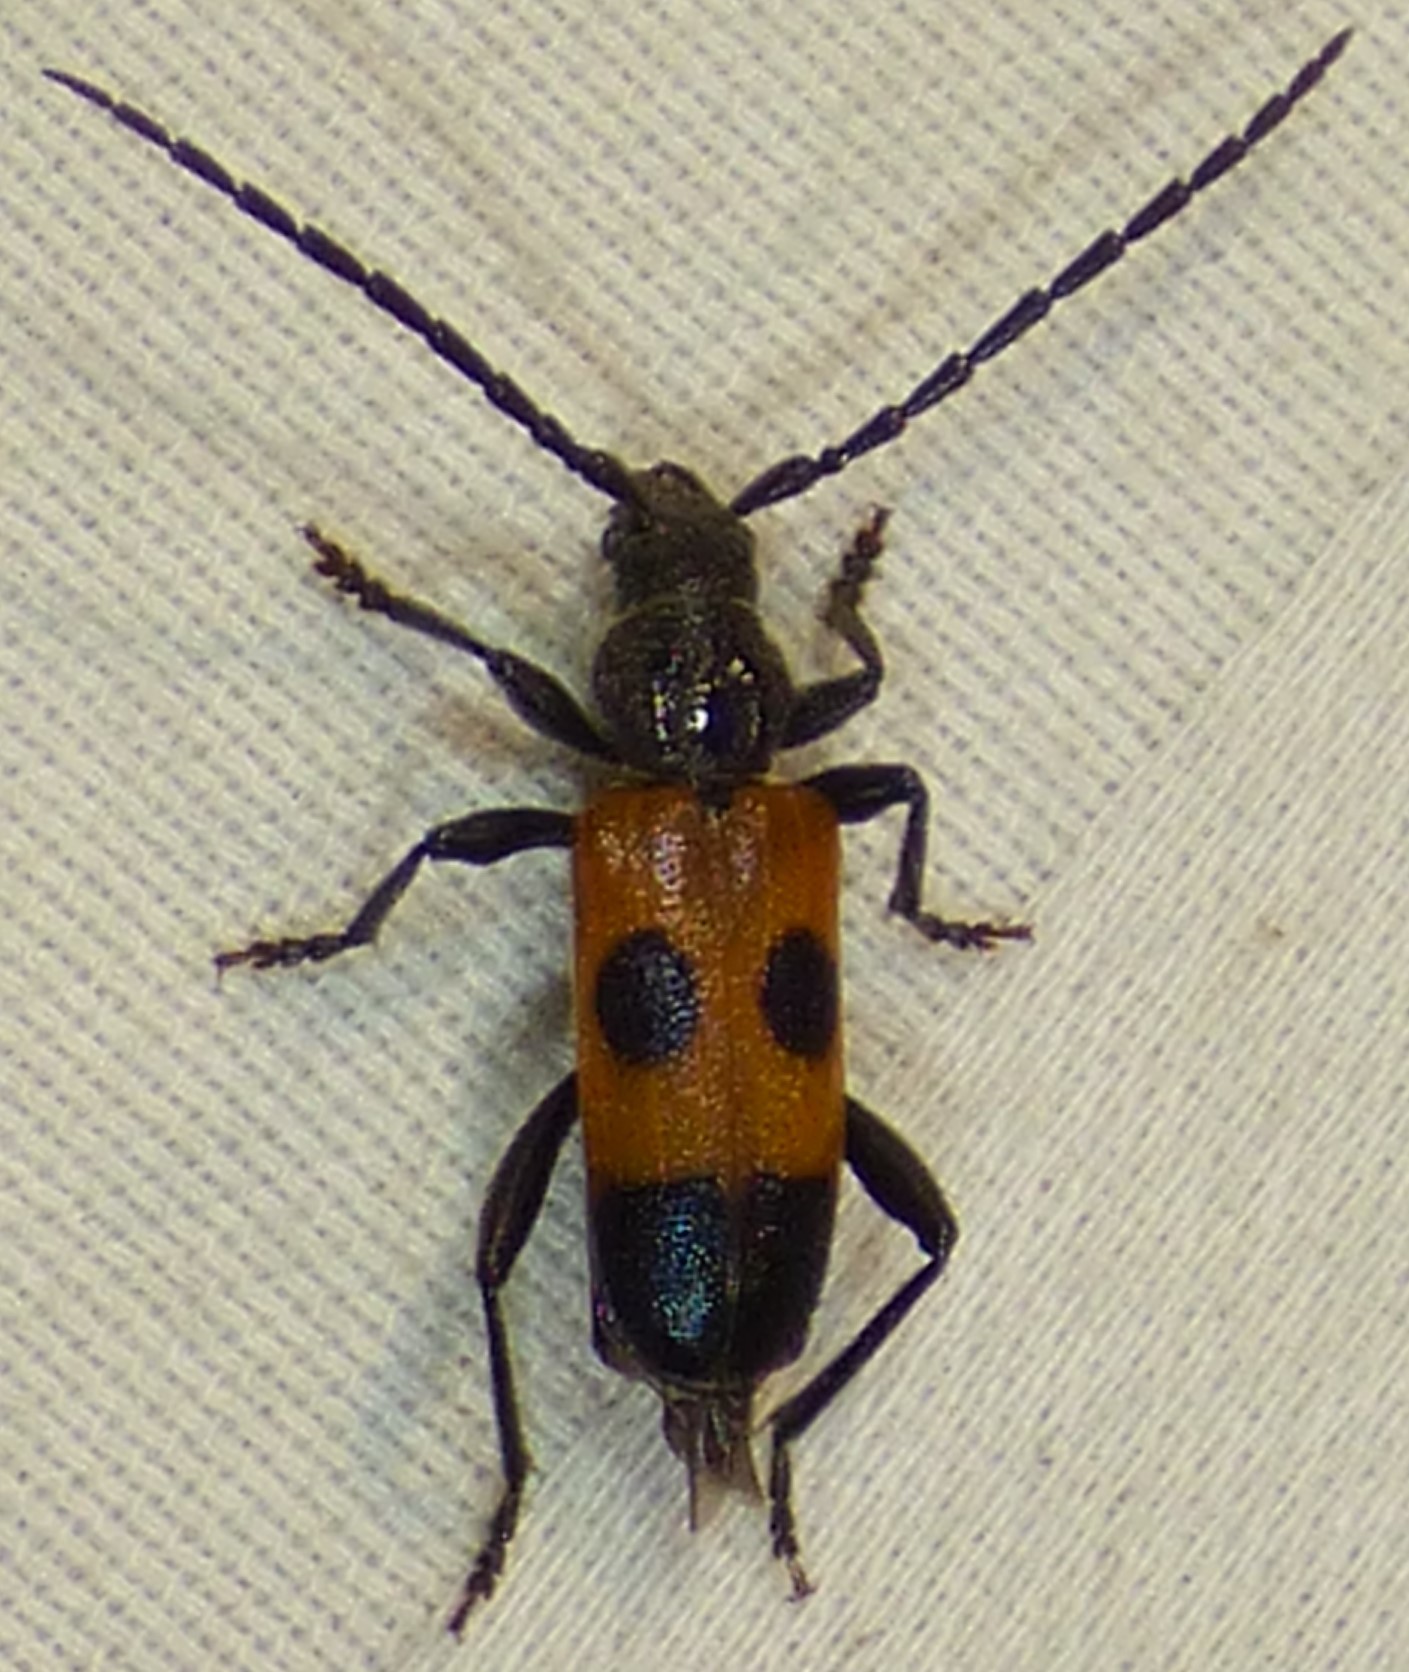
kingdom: Animalia
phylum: Arthropoda
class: Insecta
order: Coleoptera
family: Cerambycidae
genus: Semanotus
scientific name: Semanotus ligneus
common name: Cedartree borer
